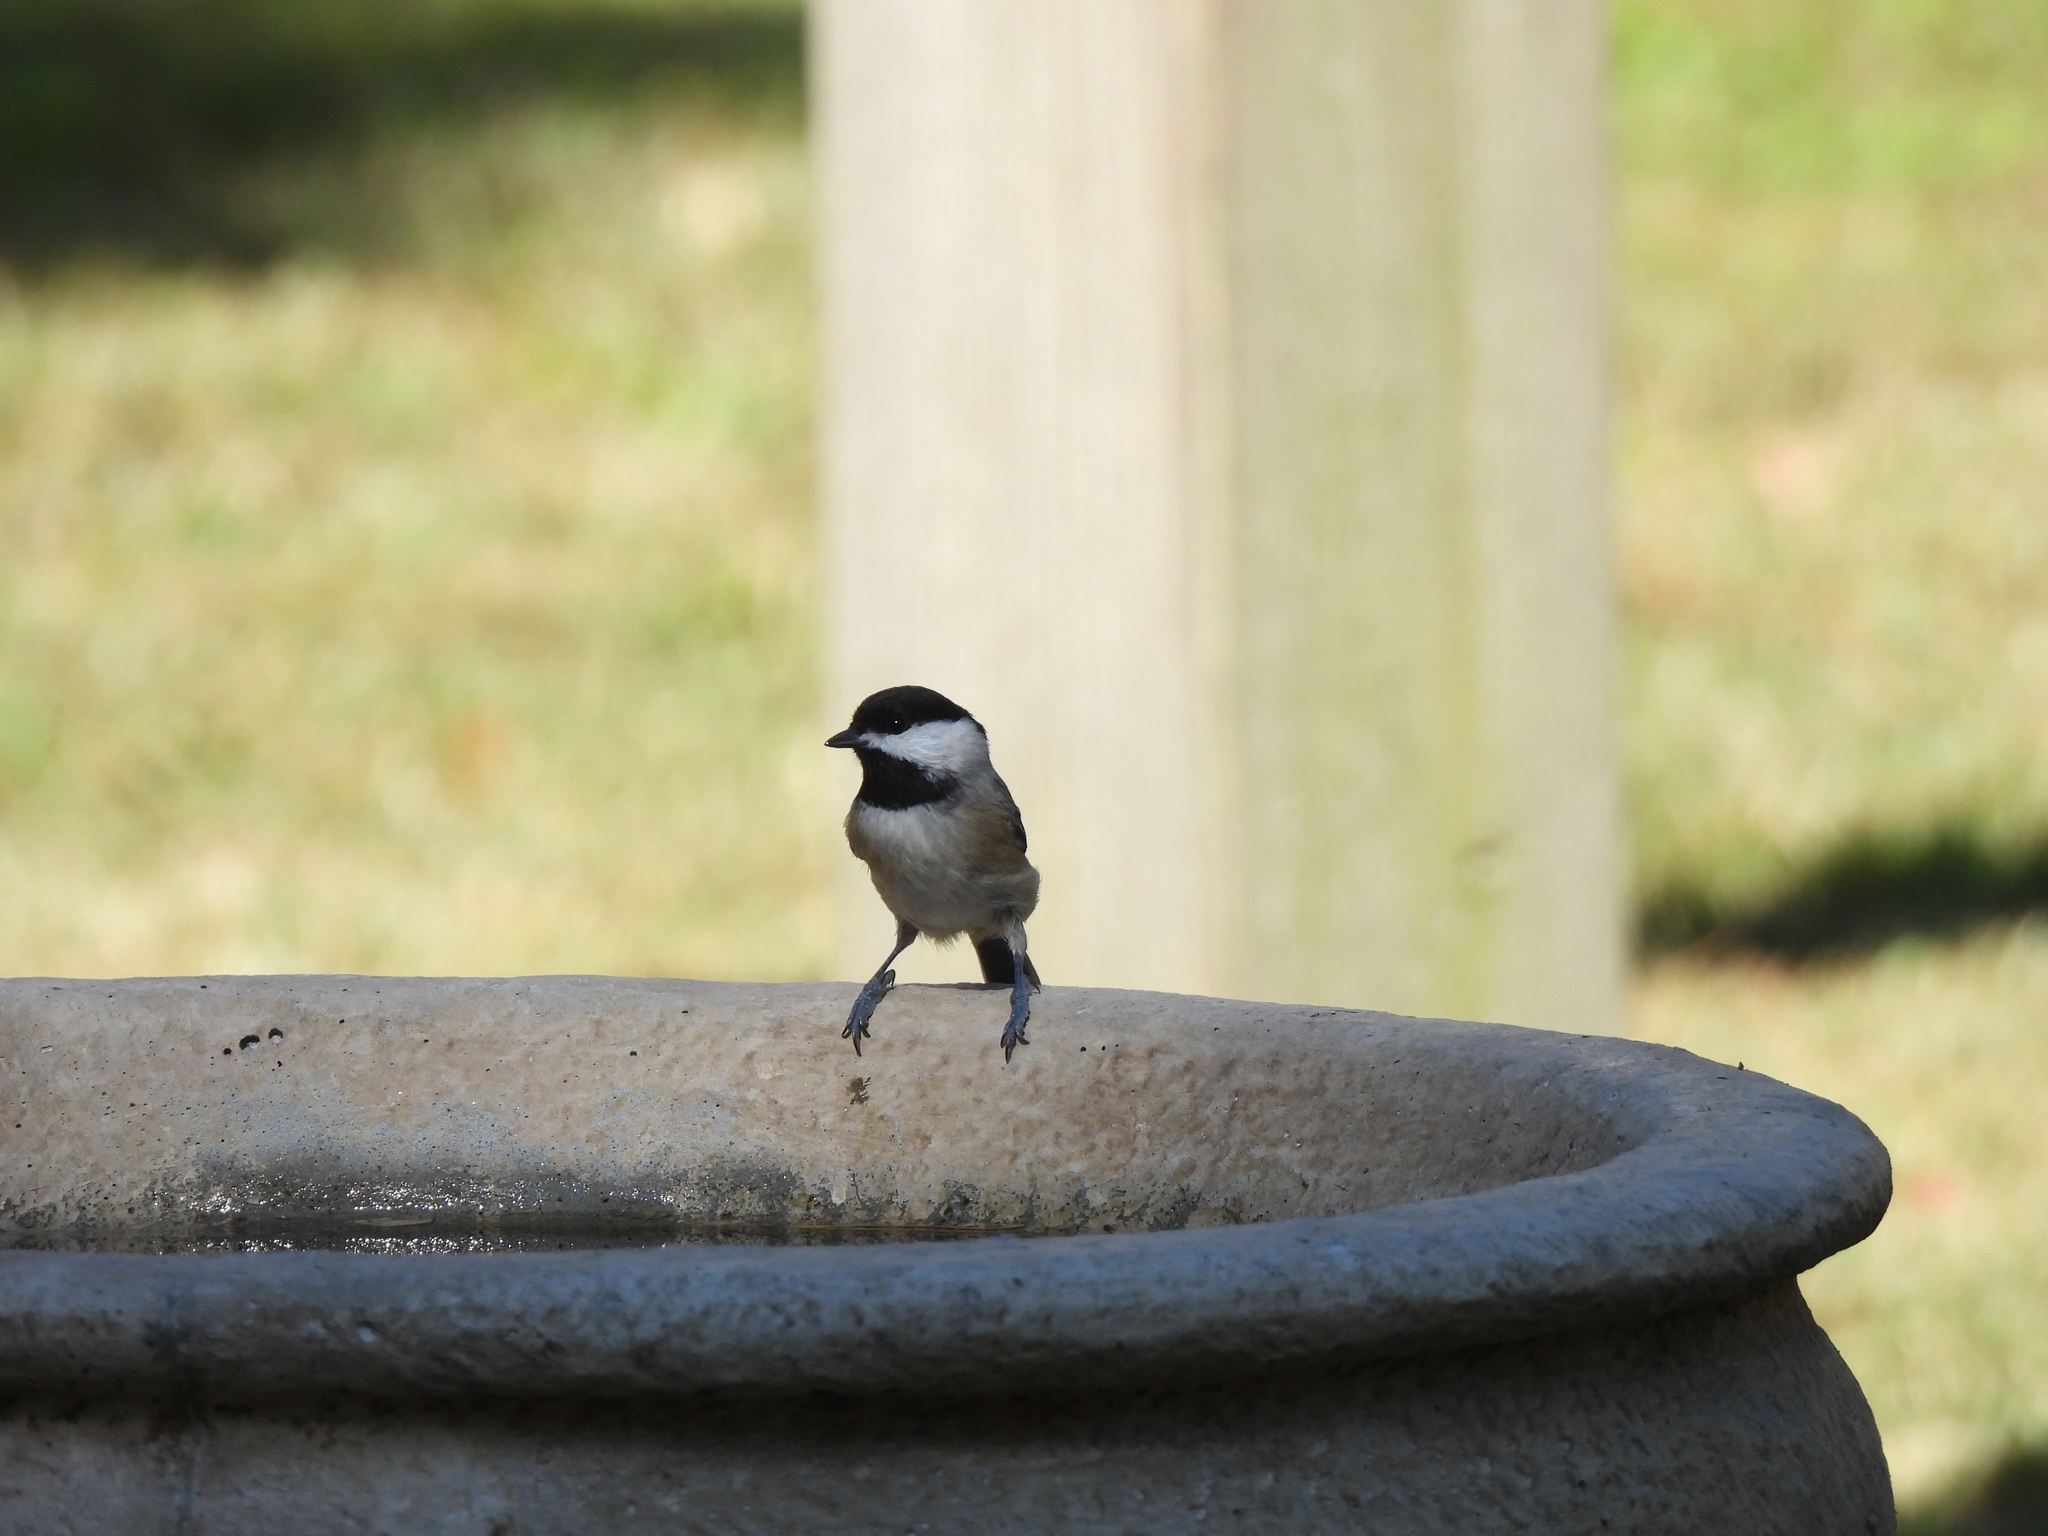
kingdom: Animalia
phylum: Chordata
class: Aves
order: Passeriformes
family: Paridae
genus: Poecile
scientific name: Poecile carolinensis
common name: Carolina chickadee
